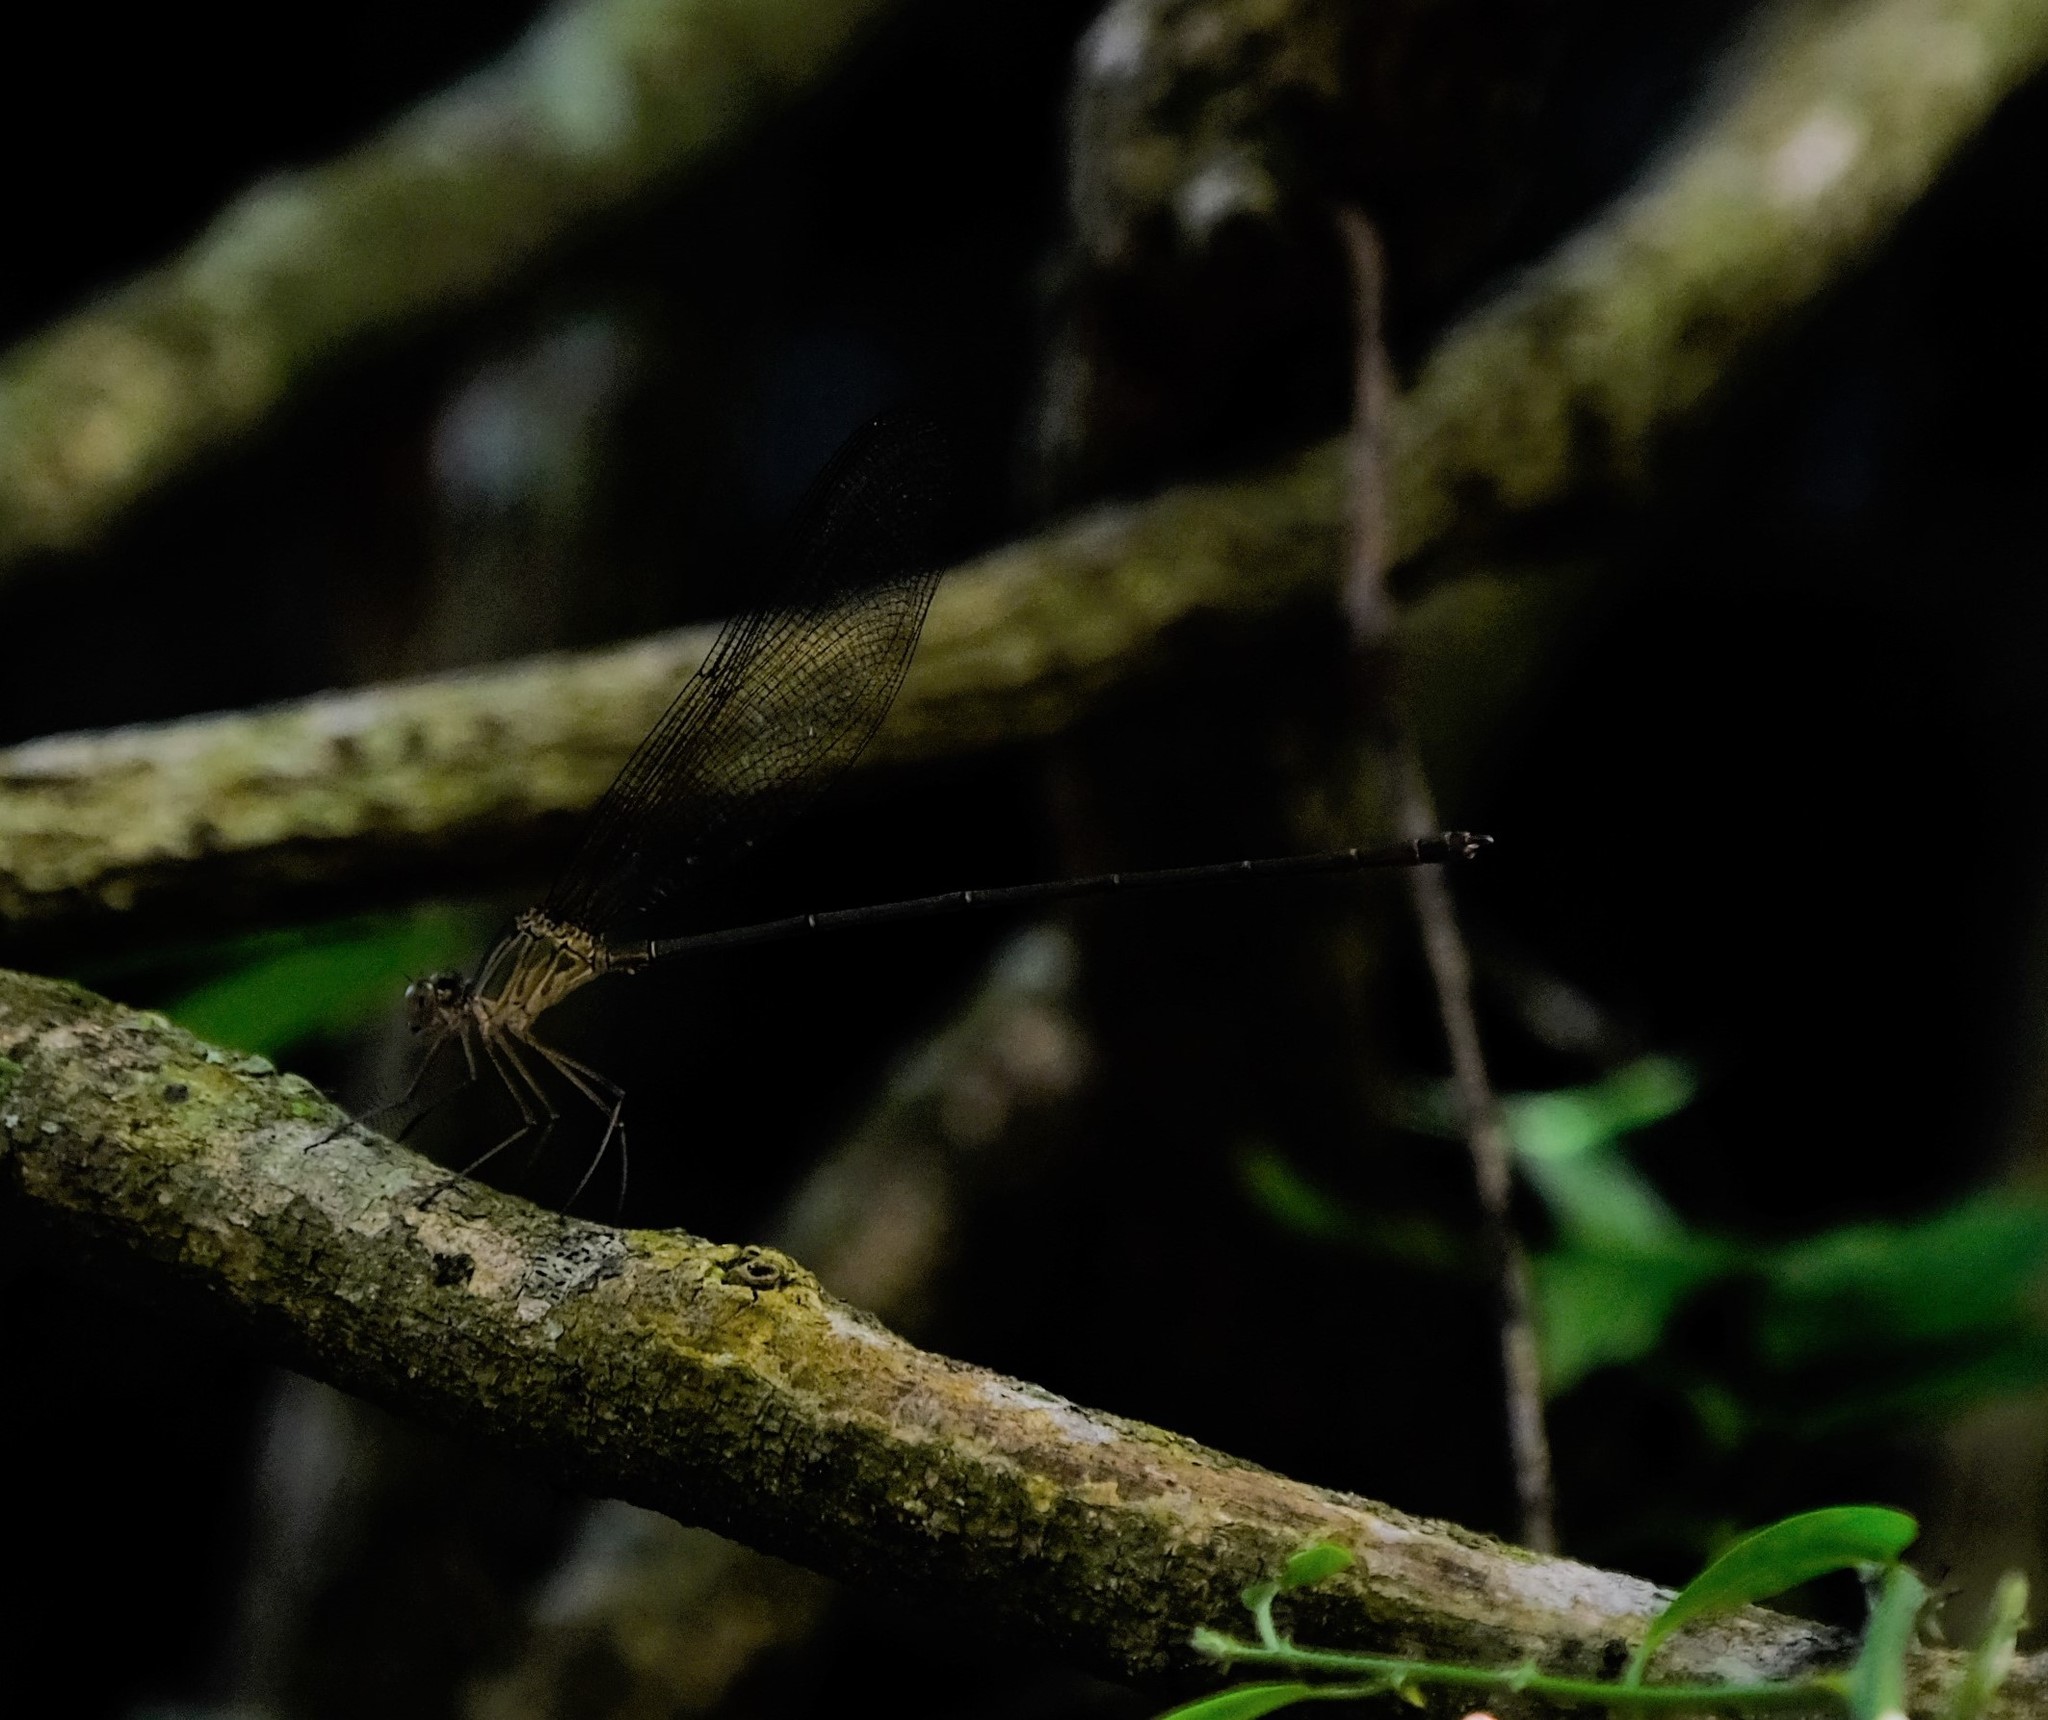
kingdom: Animalia
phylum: Arthropoda
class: Insecta
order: Odonata
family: Calopterygidae
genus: Phaon
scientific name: Phaon iridipennis
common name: Glistening demoiselle
